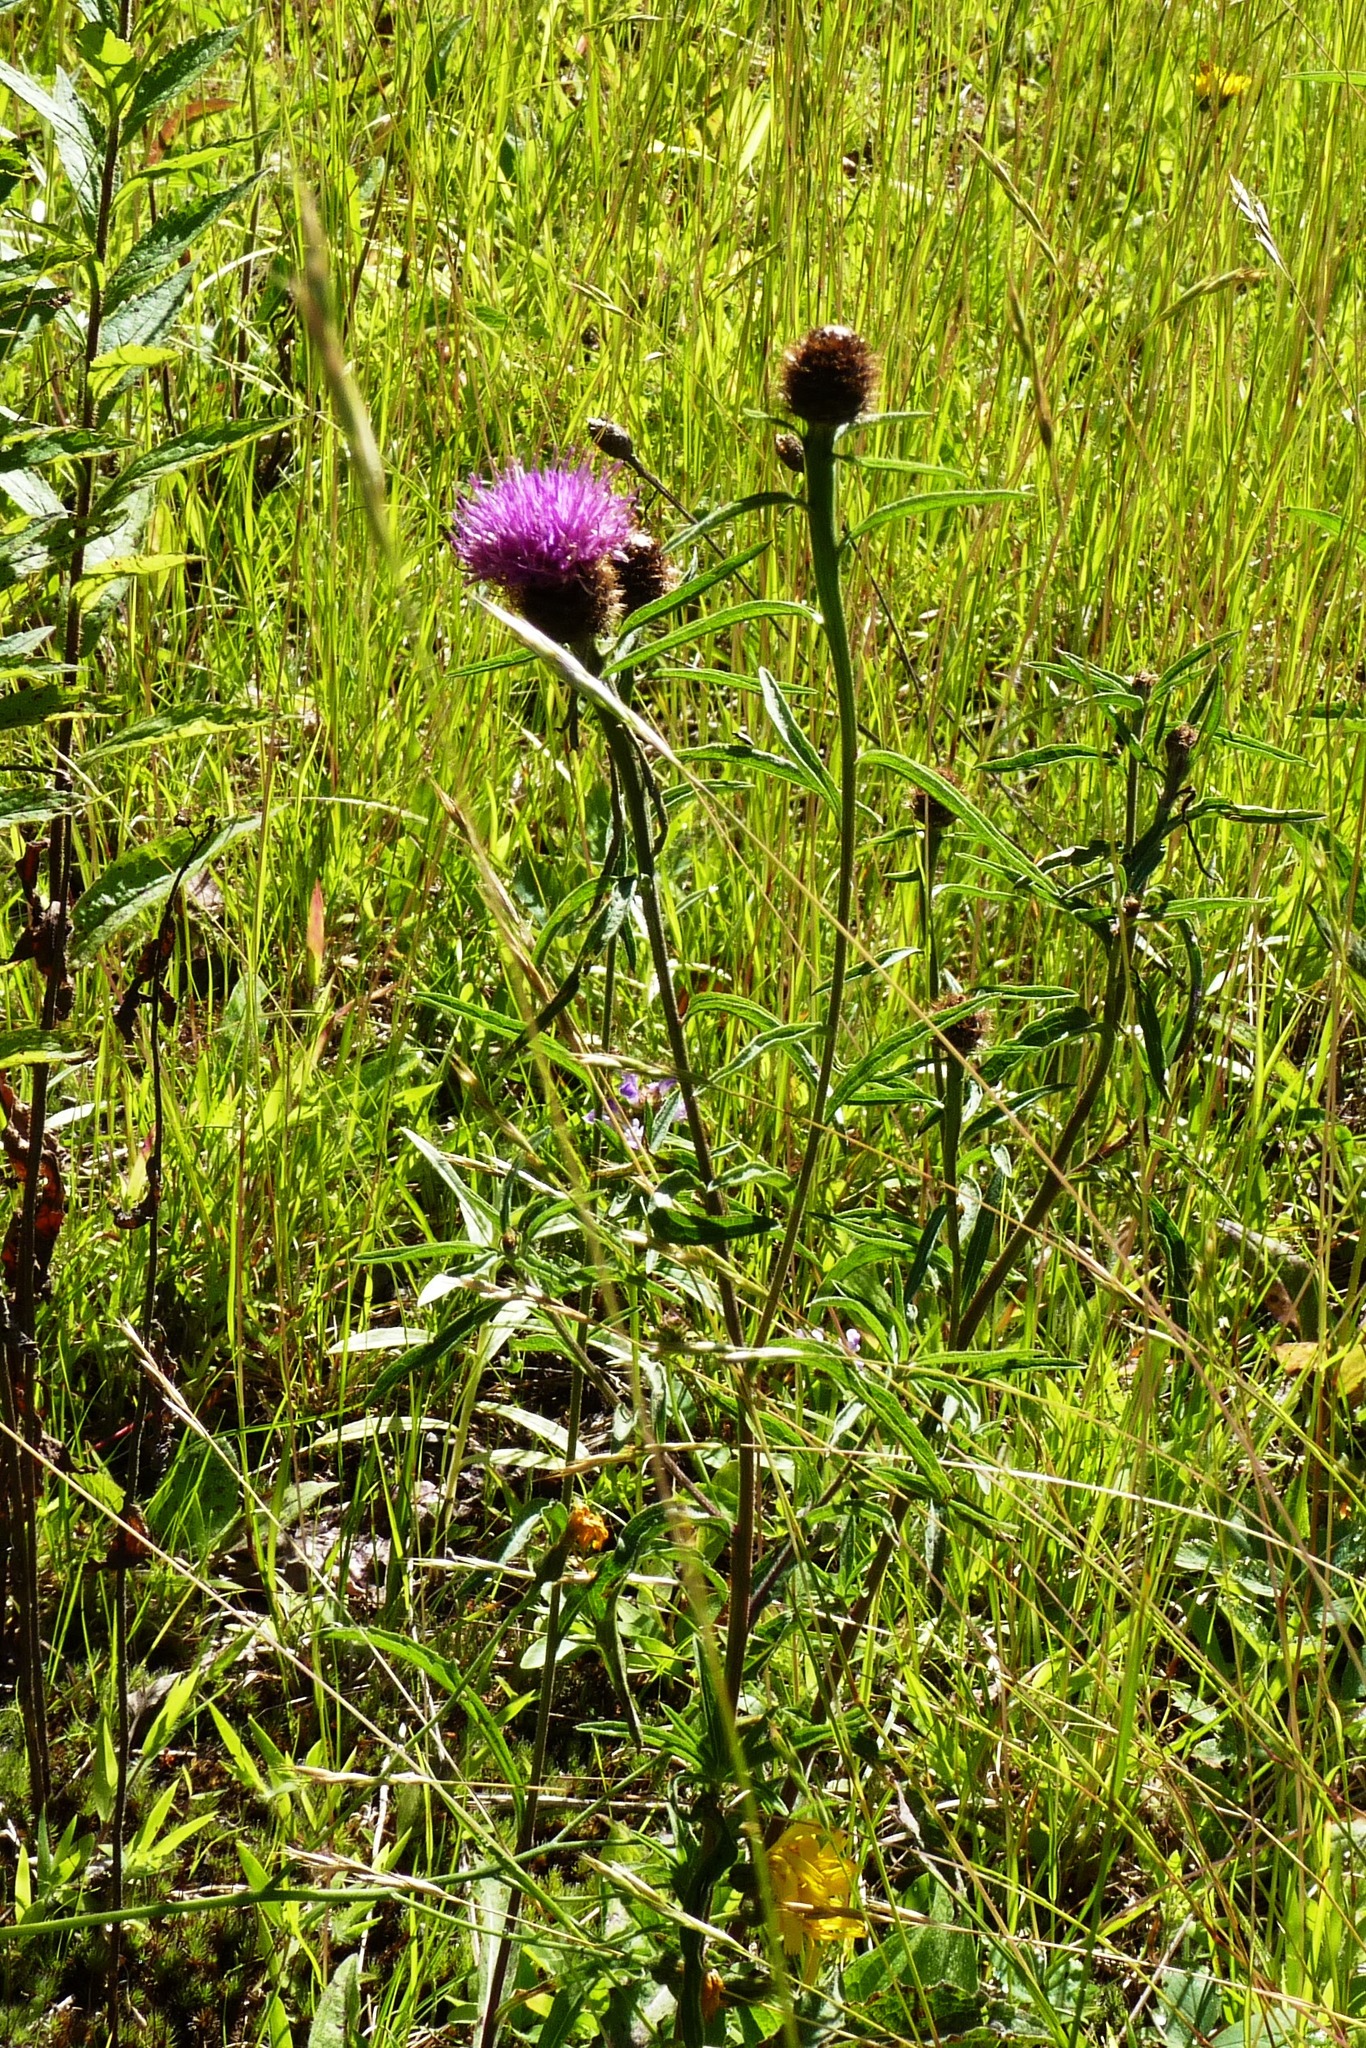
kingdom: Plantae
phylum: Tracheophyta
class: Magnoliopsida
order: Asterales
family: Asteraceae
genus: Centaurea
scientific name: Centaurea nigra
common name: Lesser knapweed
